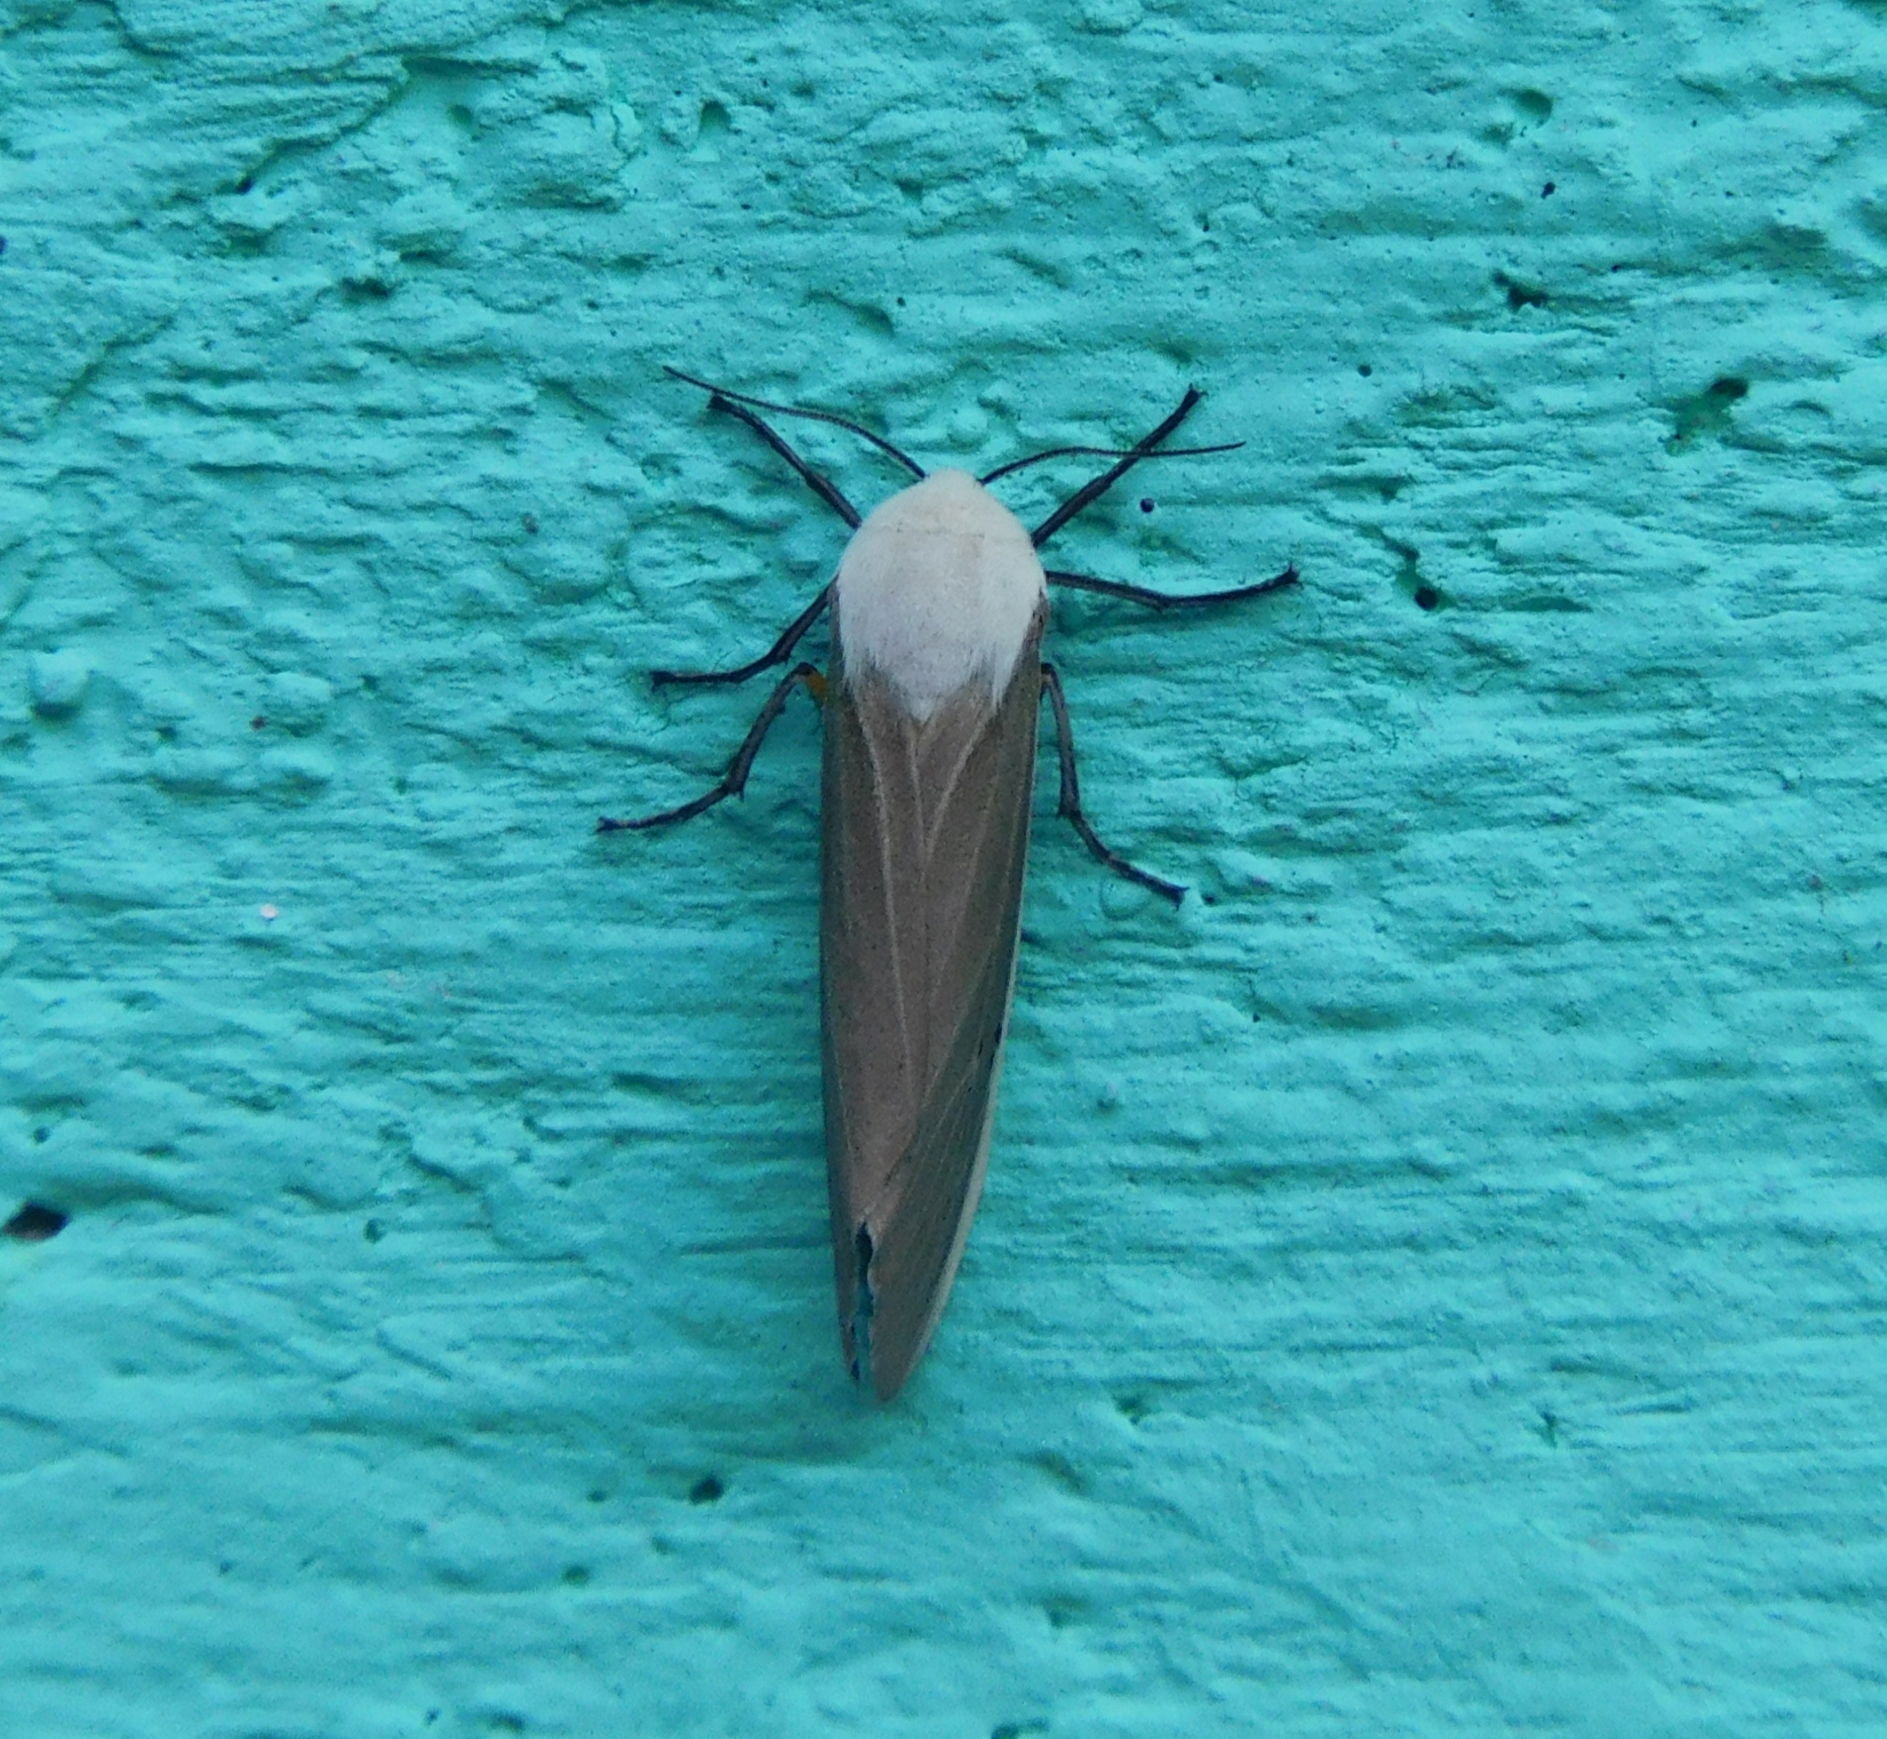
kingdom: Animalia
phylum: Arthropoda
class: Insecta
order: Lepidoptera
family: Erebidae
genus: Creatonotos
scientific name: Creatonotos transiens
